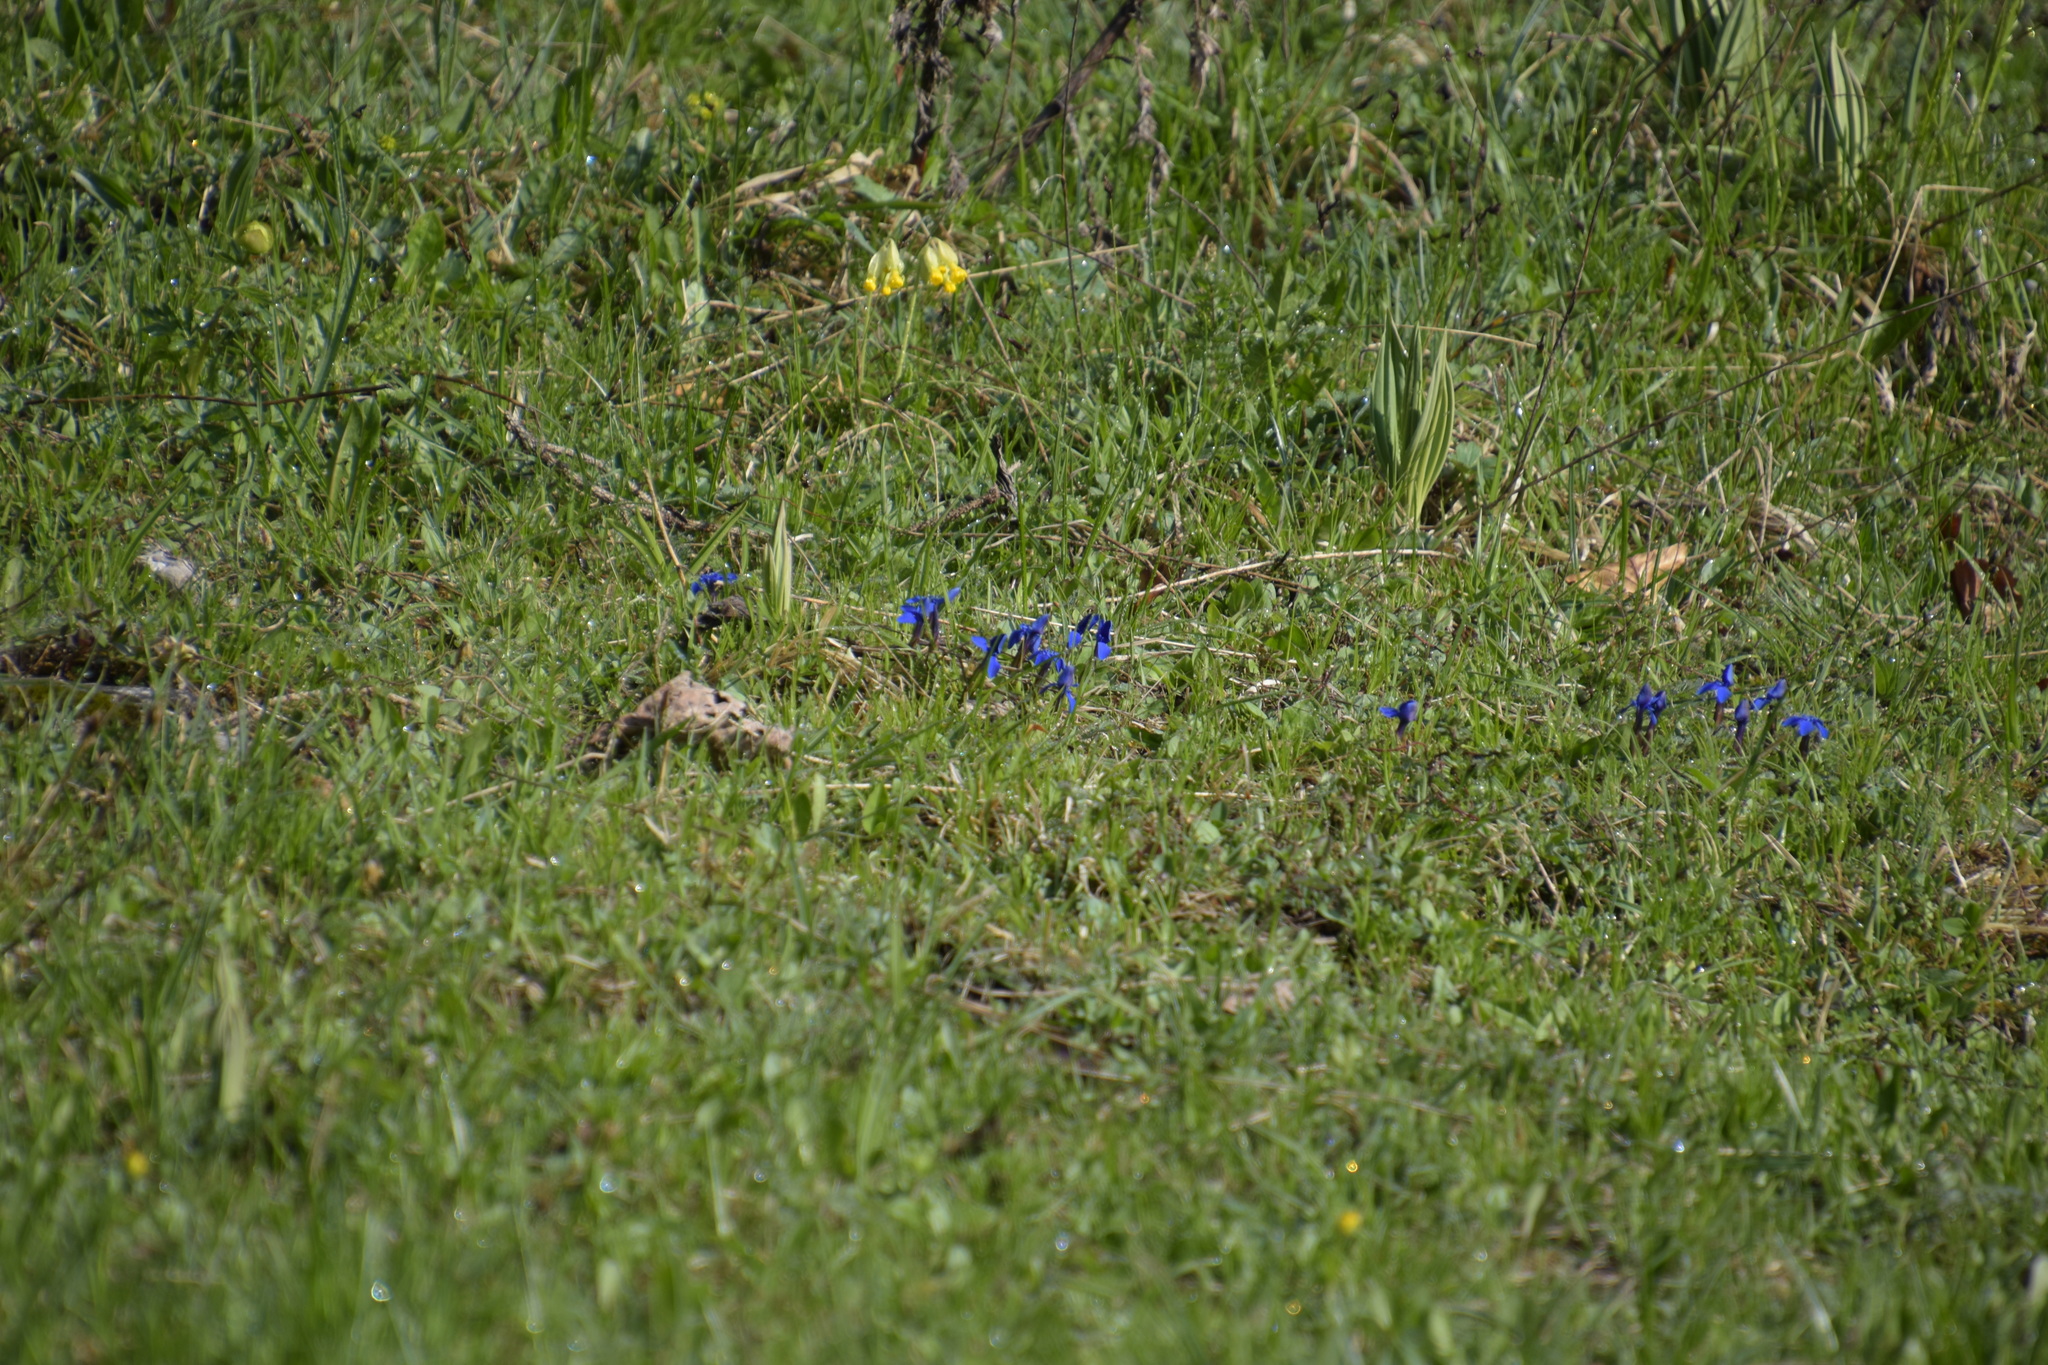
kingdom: Plantae
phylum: Tracheophyta
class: Magnoliopsida
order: Gentianales
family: Gentianaceae
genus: Gentiana
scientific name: Gentiana verna
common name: Spring gentian
